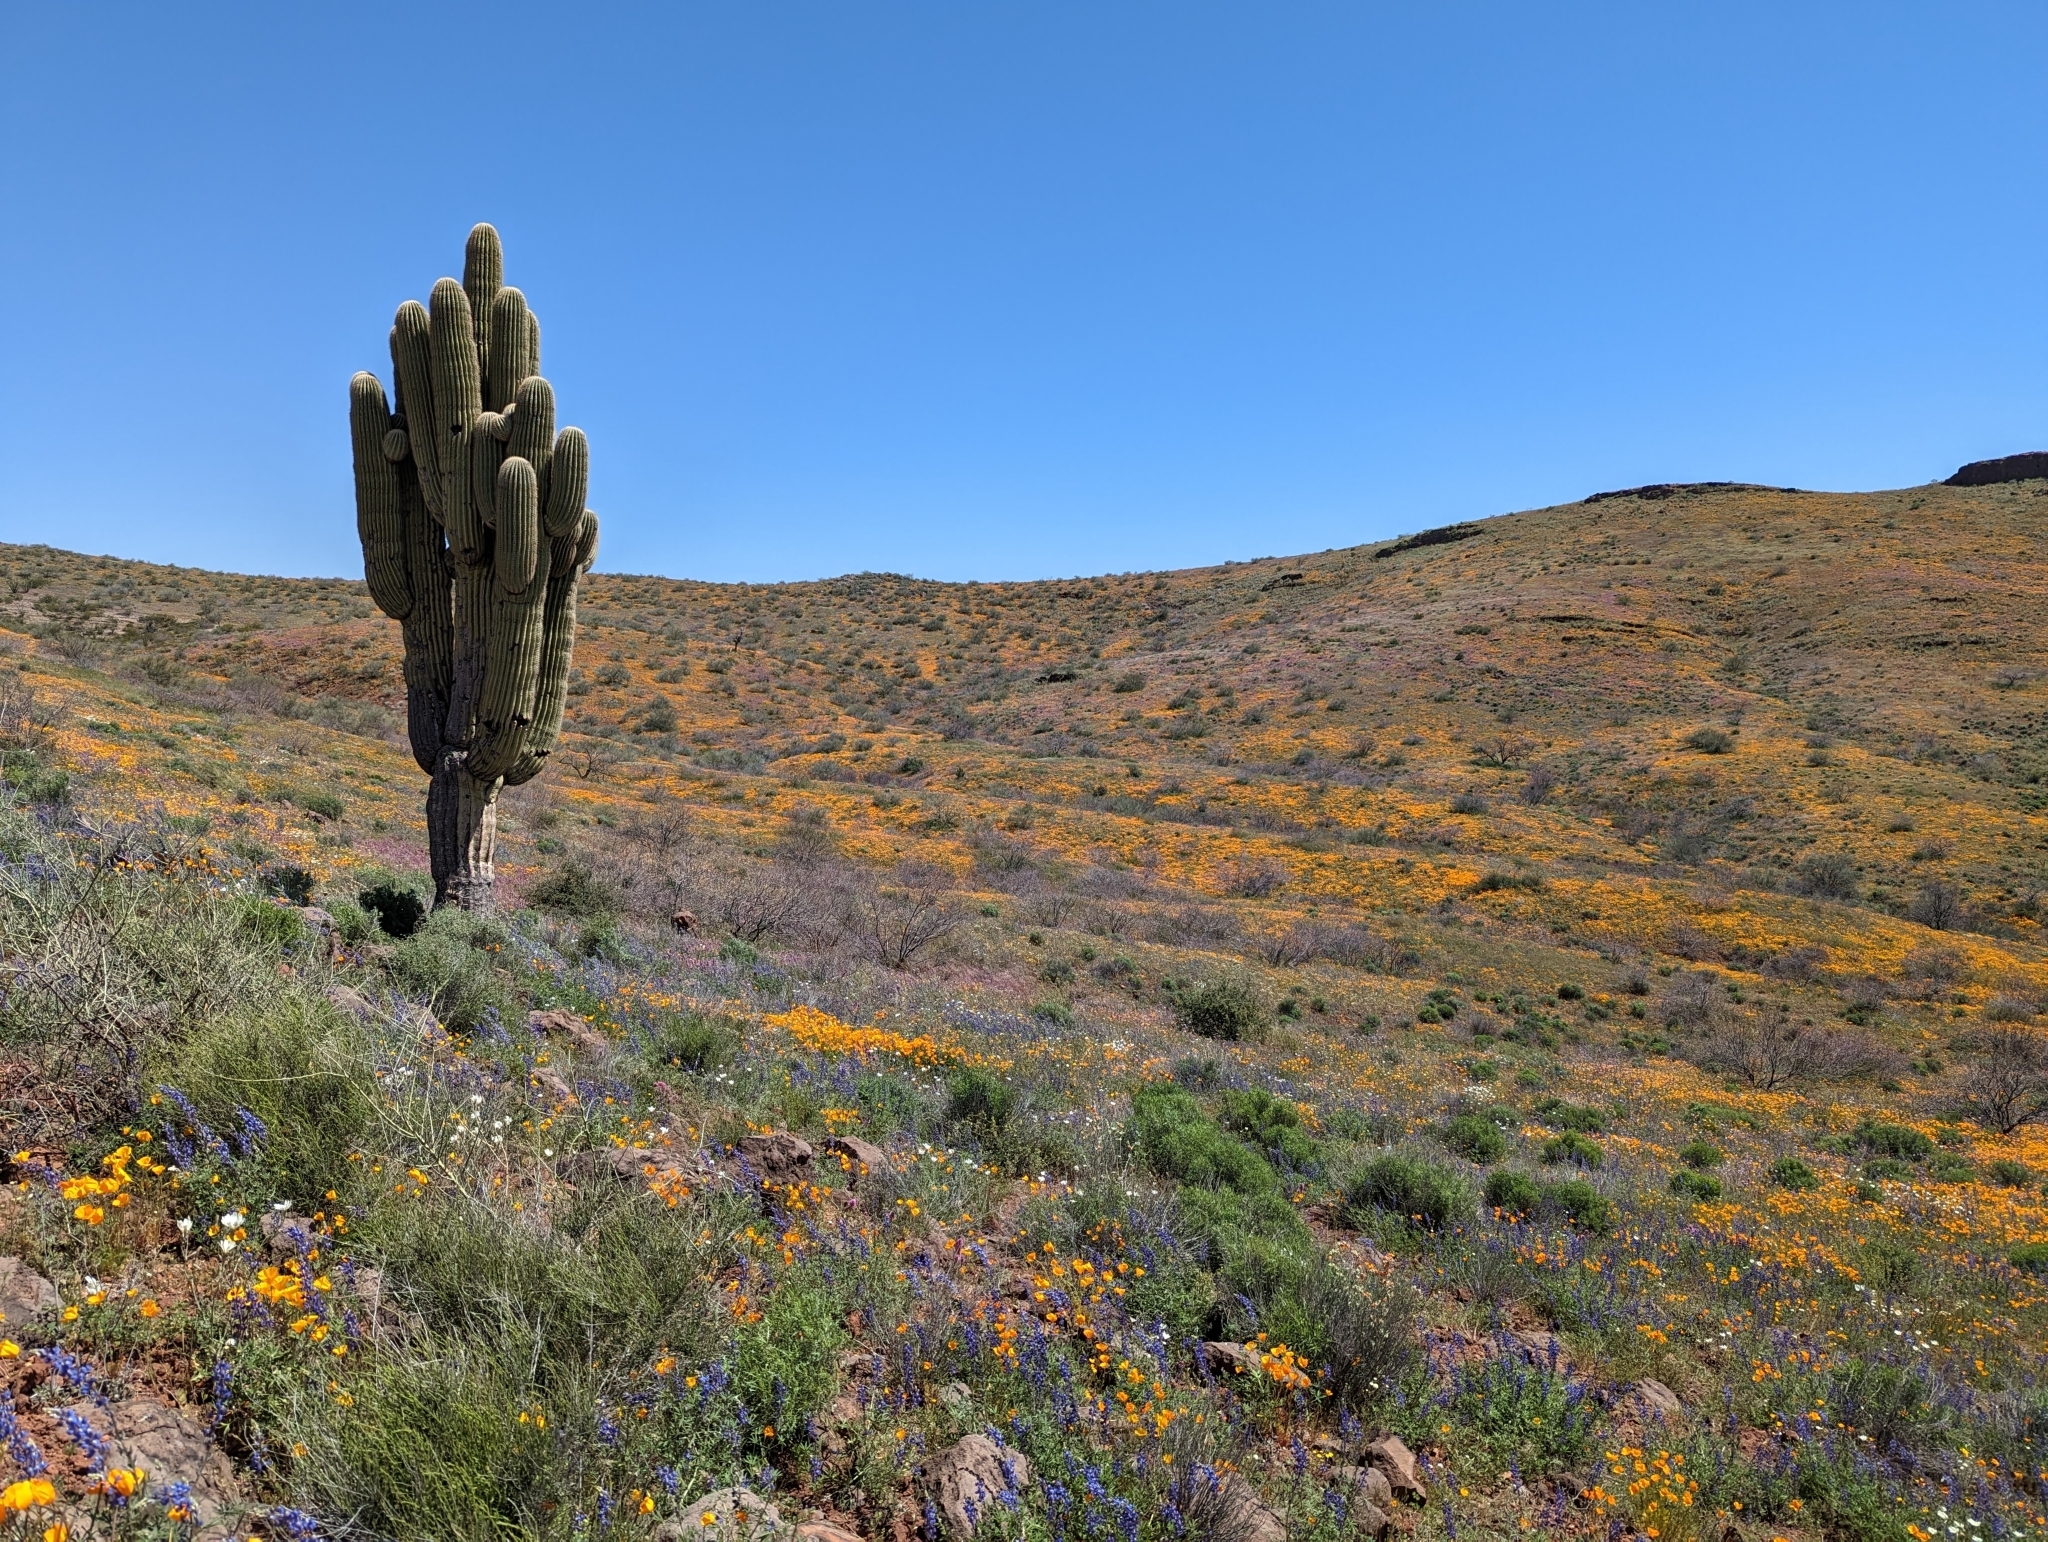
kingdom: Plantae
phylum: Tracheophyta
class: Magnoliopsida
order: Caryophyllales
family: Cactaceae
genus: Carnegiea
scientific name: Carnegiea gigantea
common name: Saguaro
